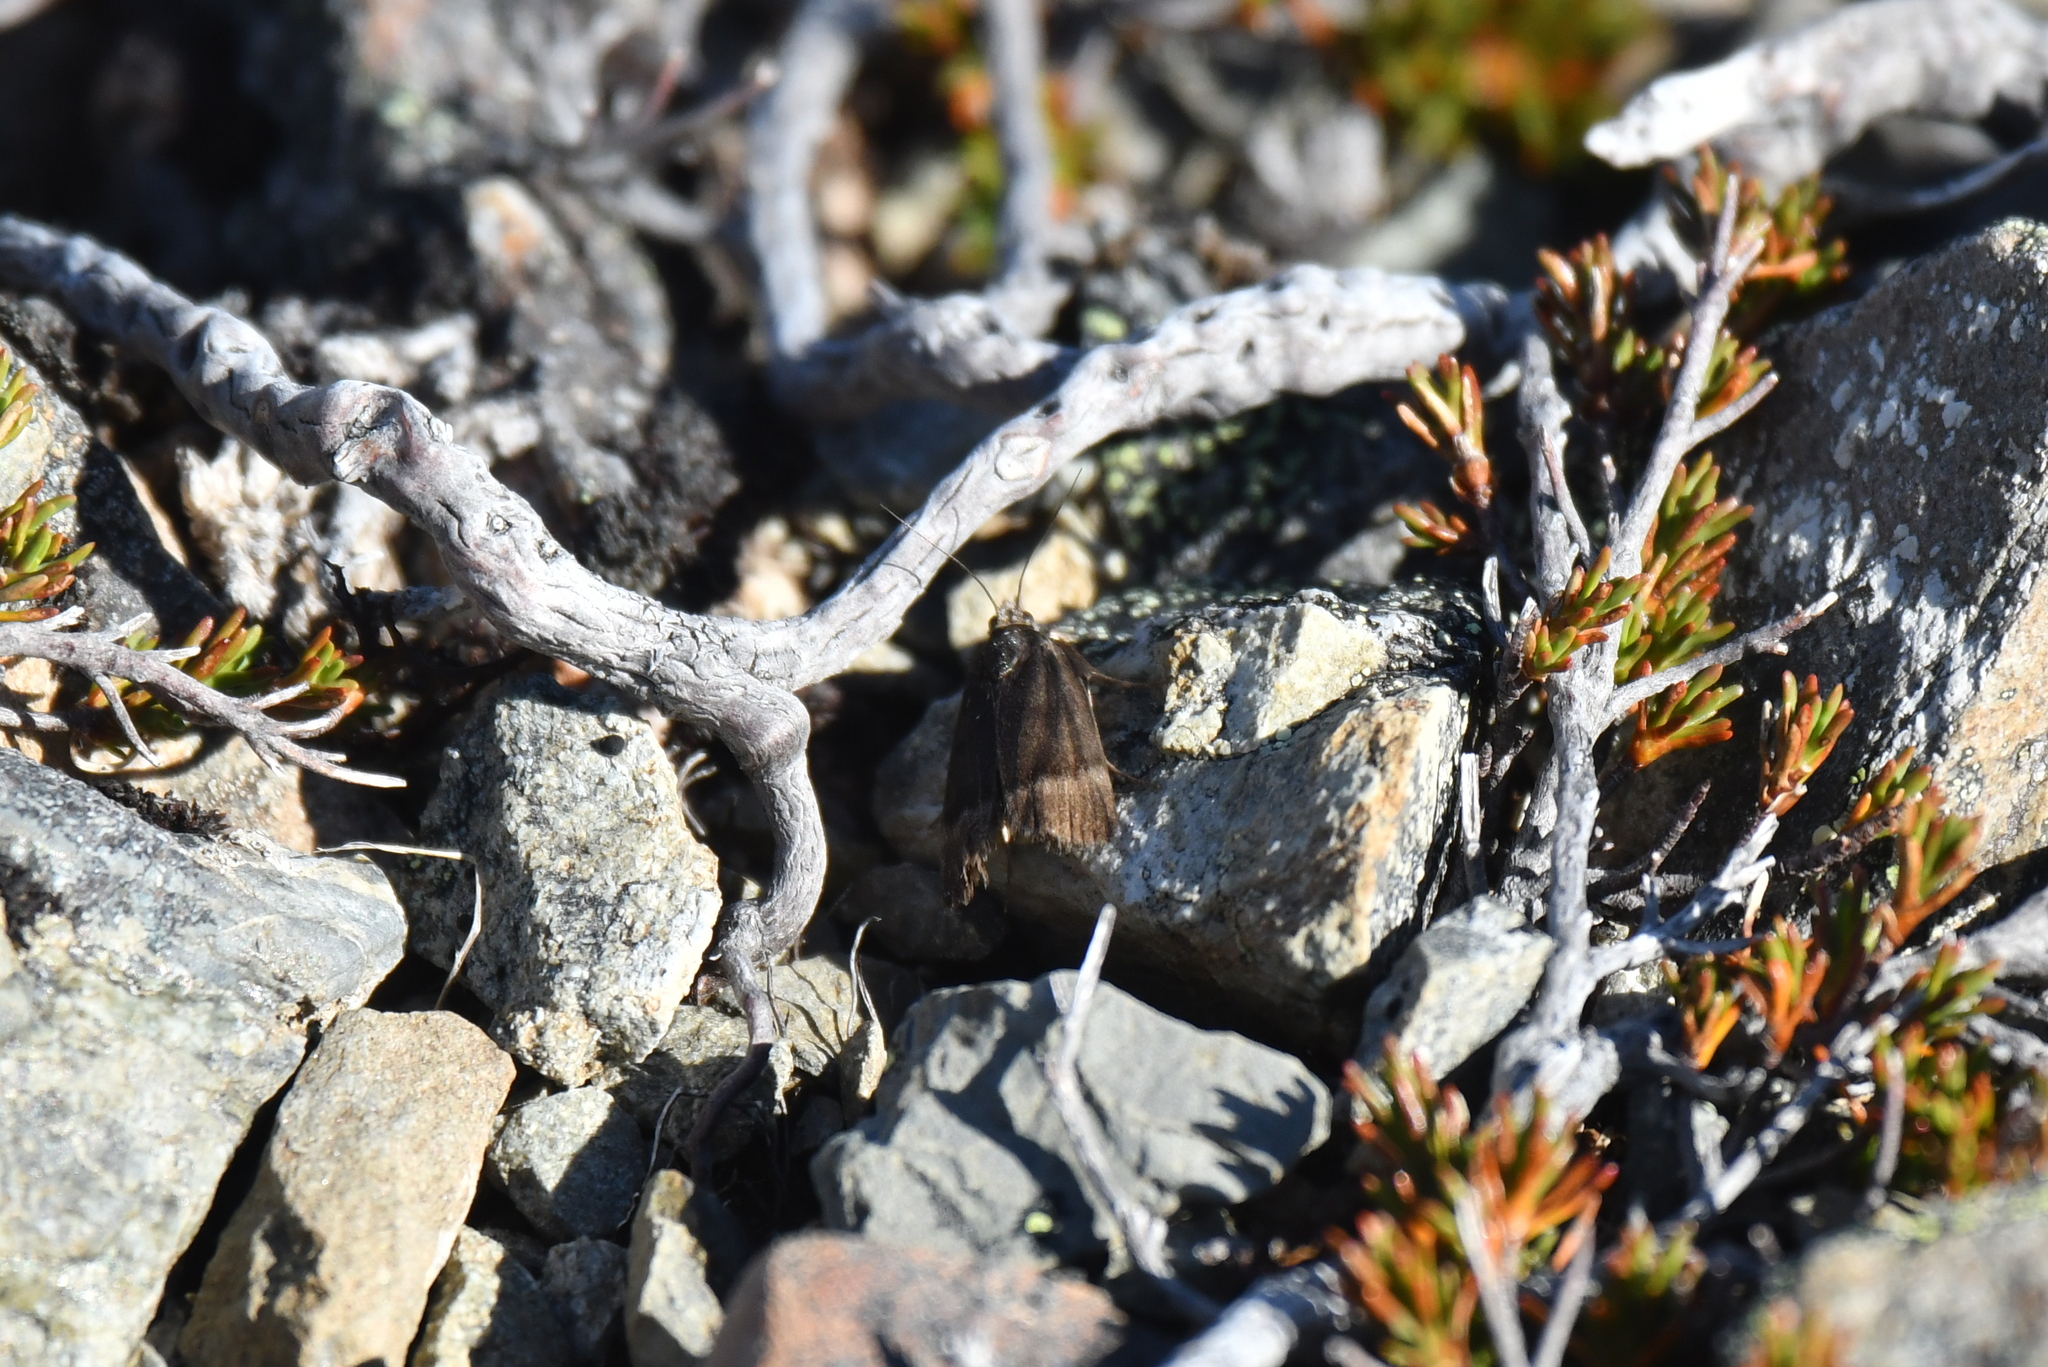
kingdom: Animalia
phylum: Arthropoda
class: Insecta
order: Lepidoptera
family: Crambidae
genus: Orocrambus
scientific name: Orocrambus melampetrus
